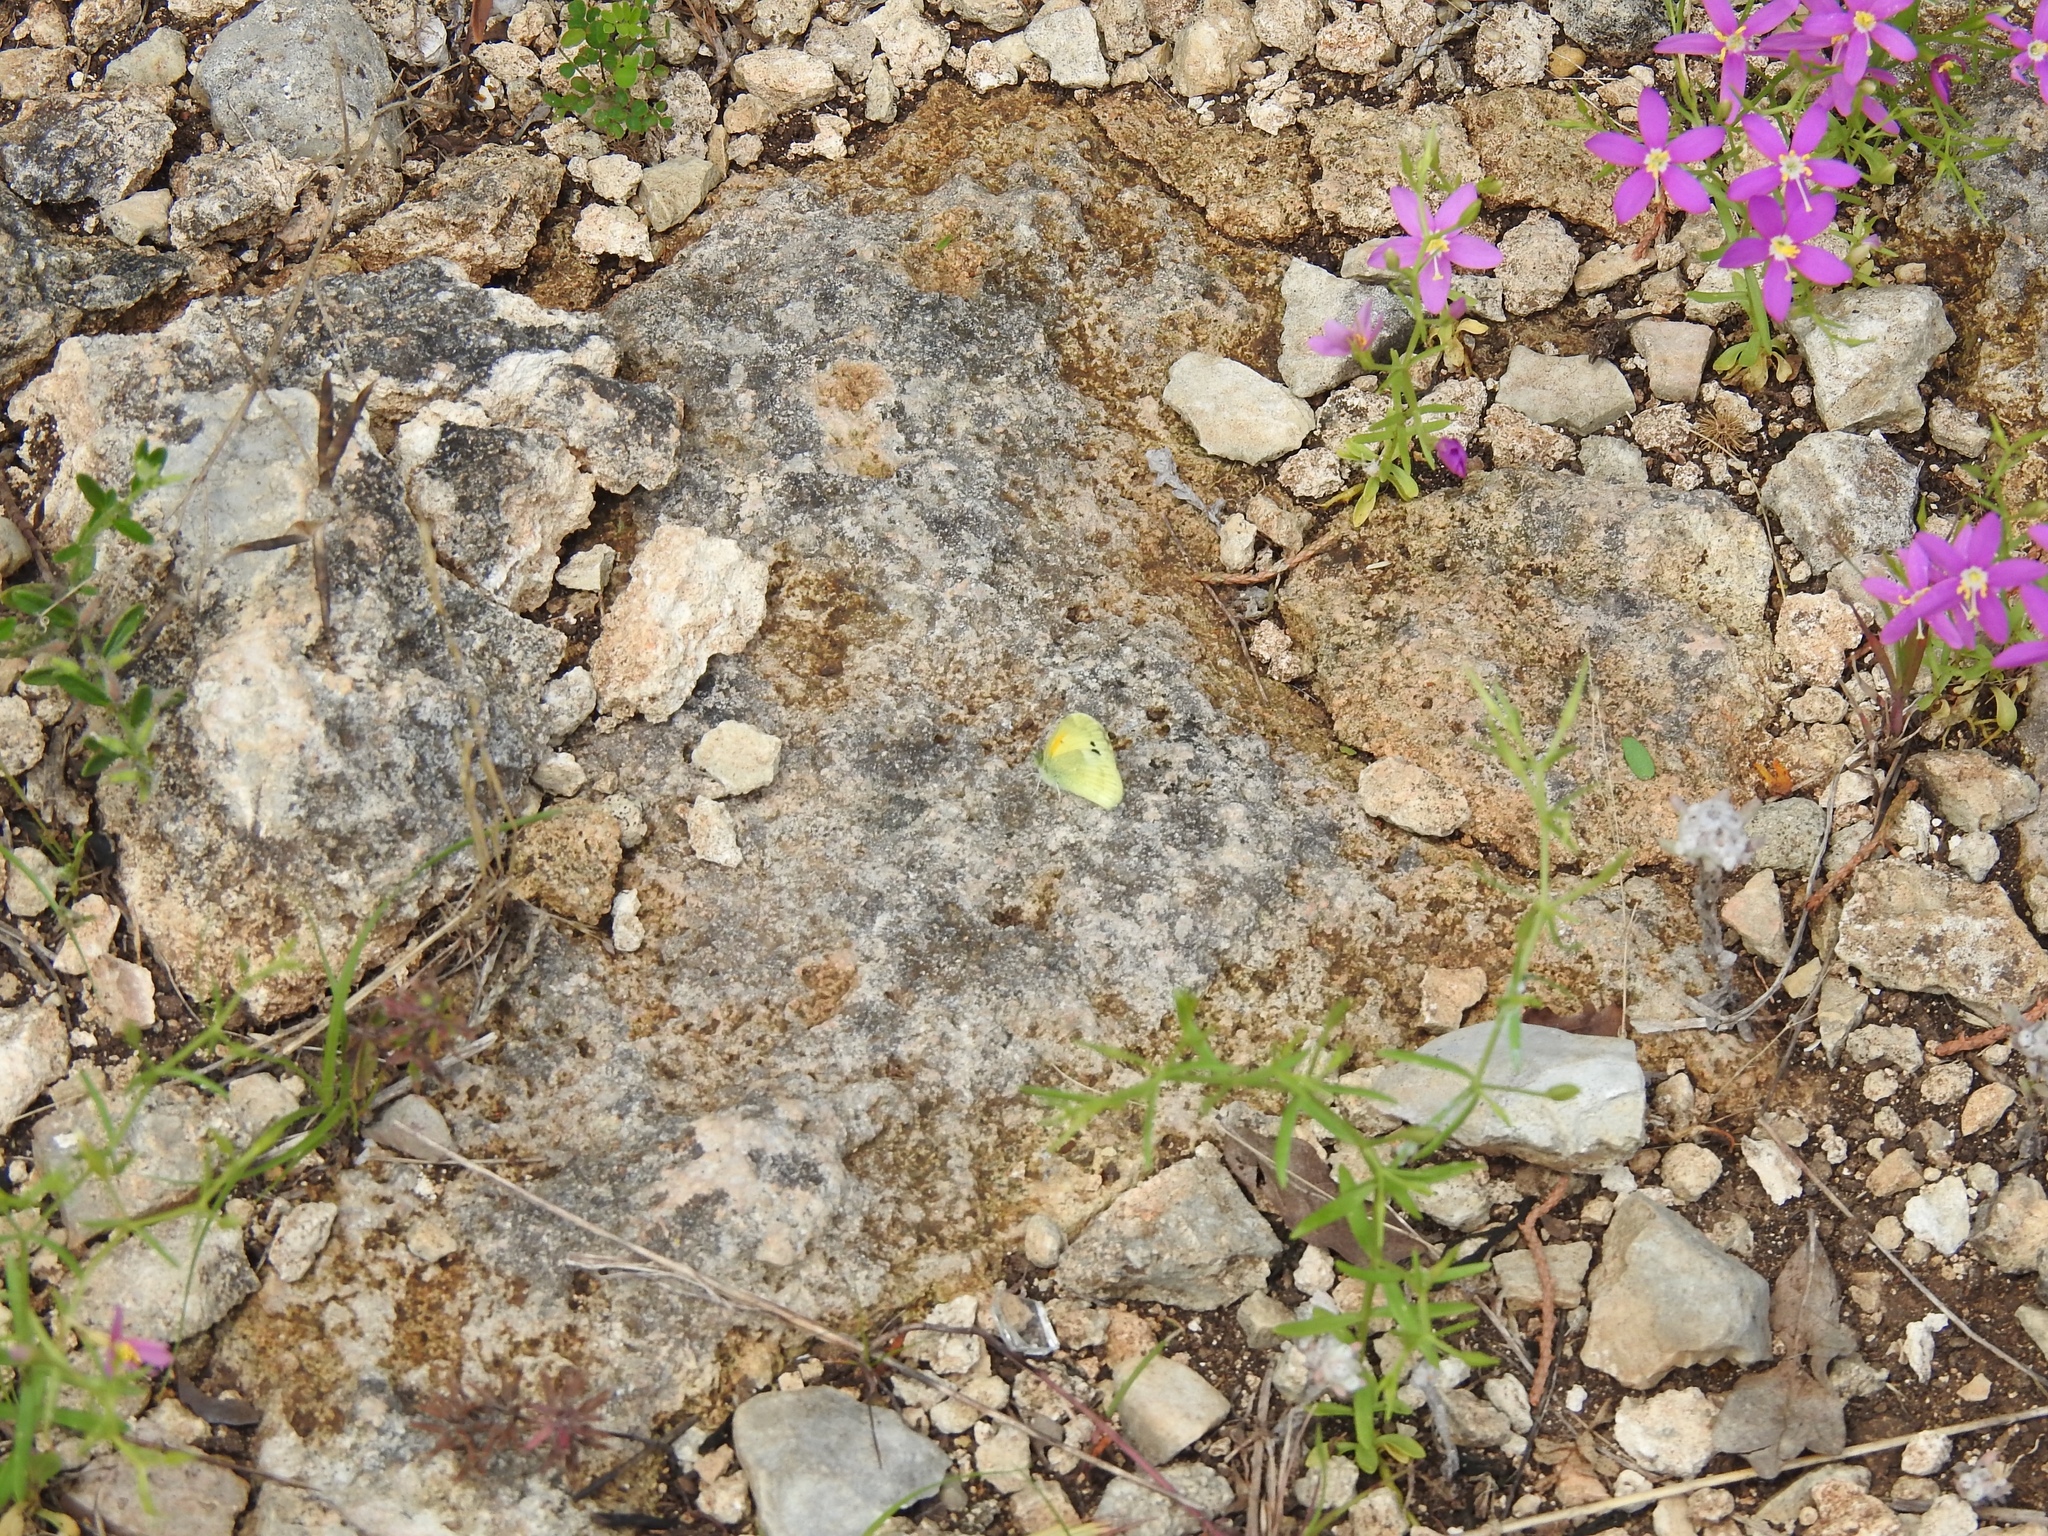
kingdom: Animalia
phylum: Arthropoda
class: Insecta
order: Lepidoptera
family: Pieridae
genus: Nathalis
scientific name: Nathalis iole
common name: Dainty sulphur
